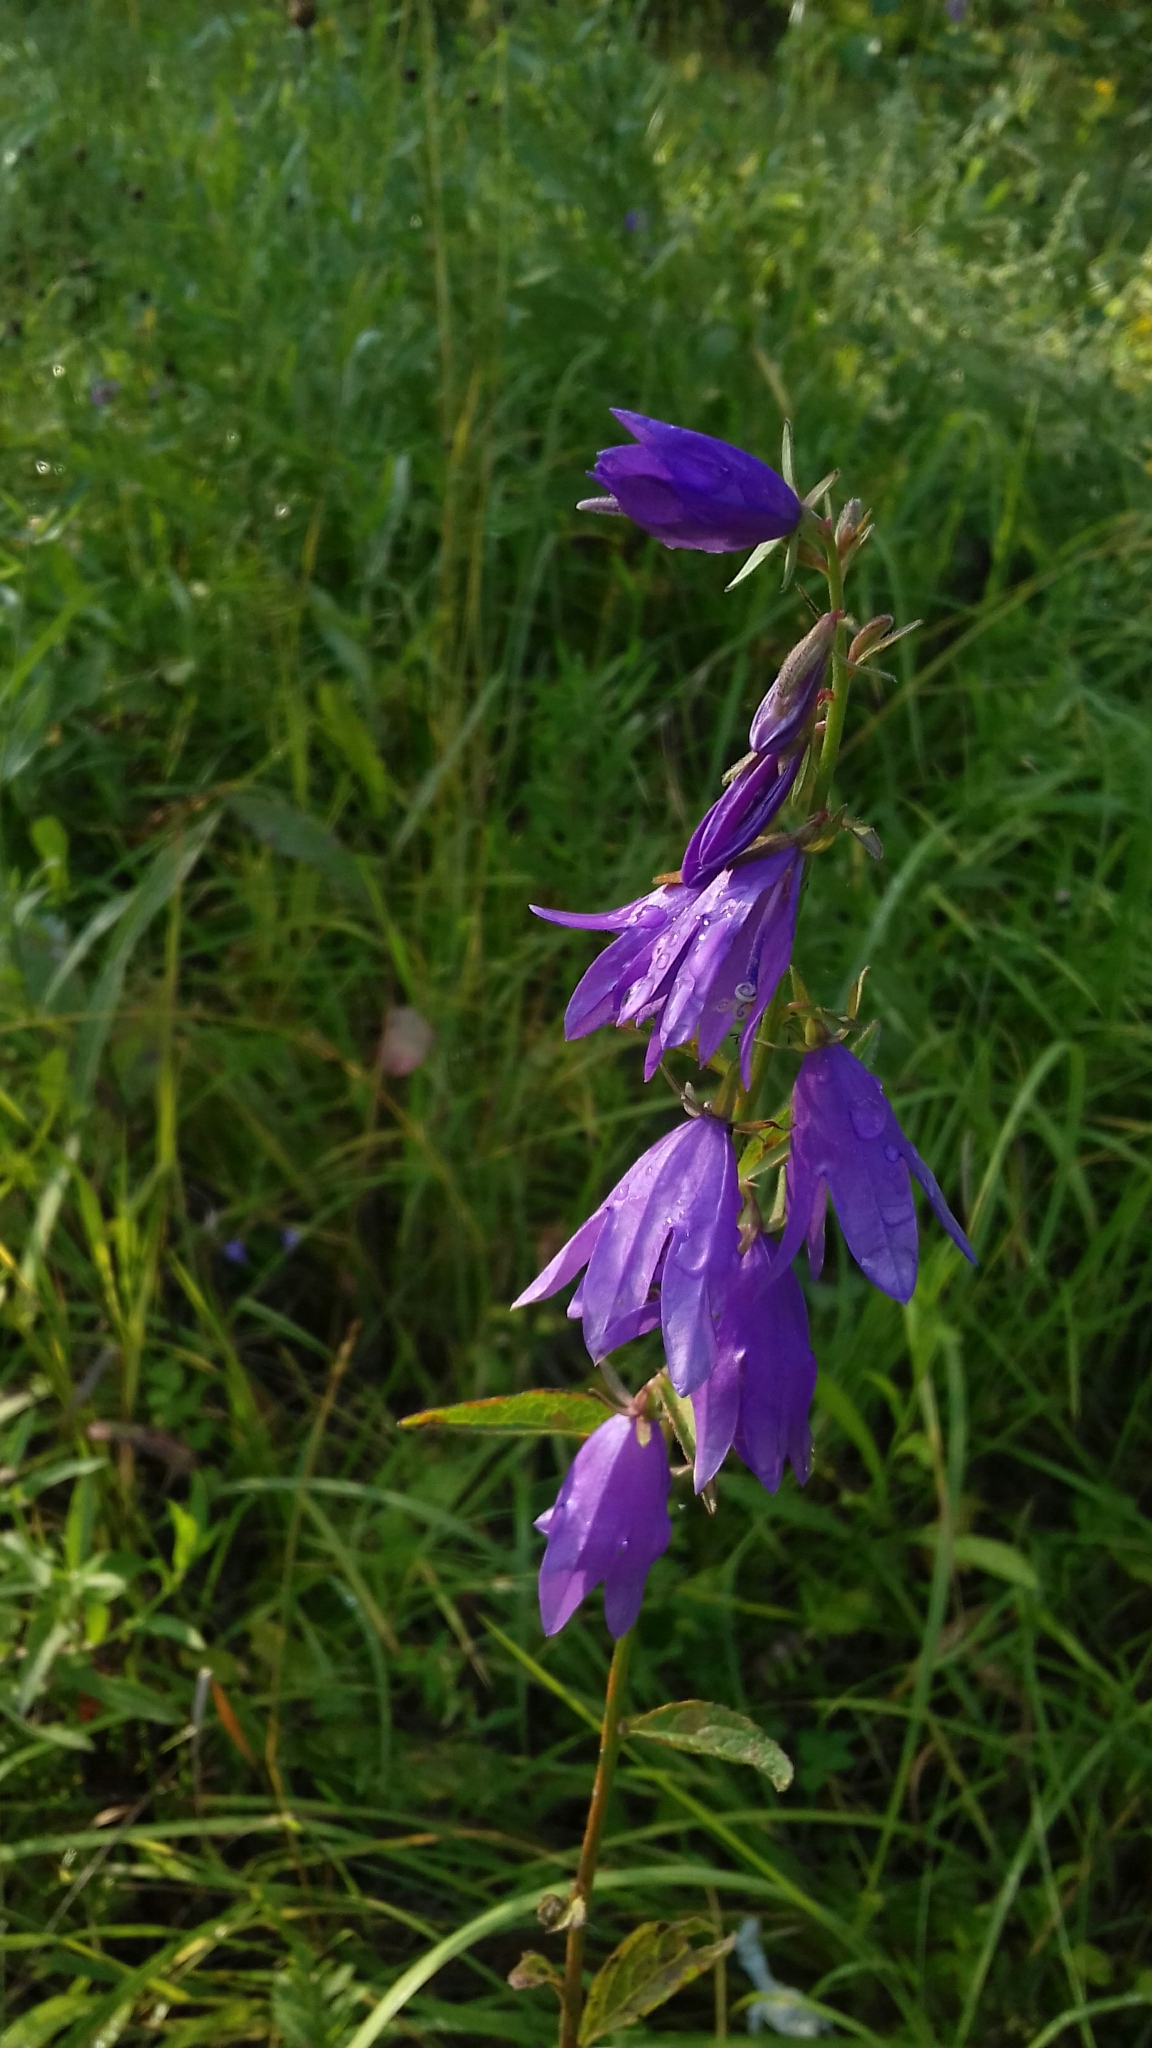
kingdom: Plantae
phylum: Tracheophyta
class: Magnoliopsida
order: Asterales
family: Campanulaceae
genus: Campanula
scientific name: Campanula rapunculoides
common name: Creeping bellflower
